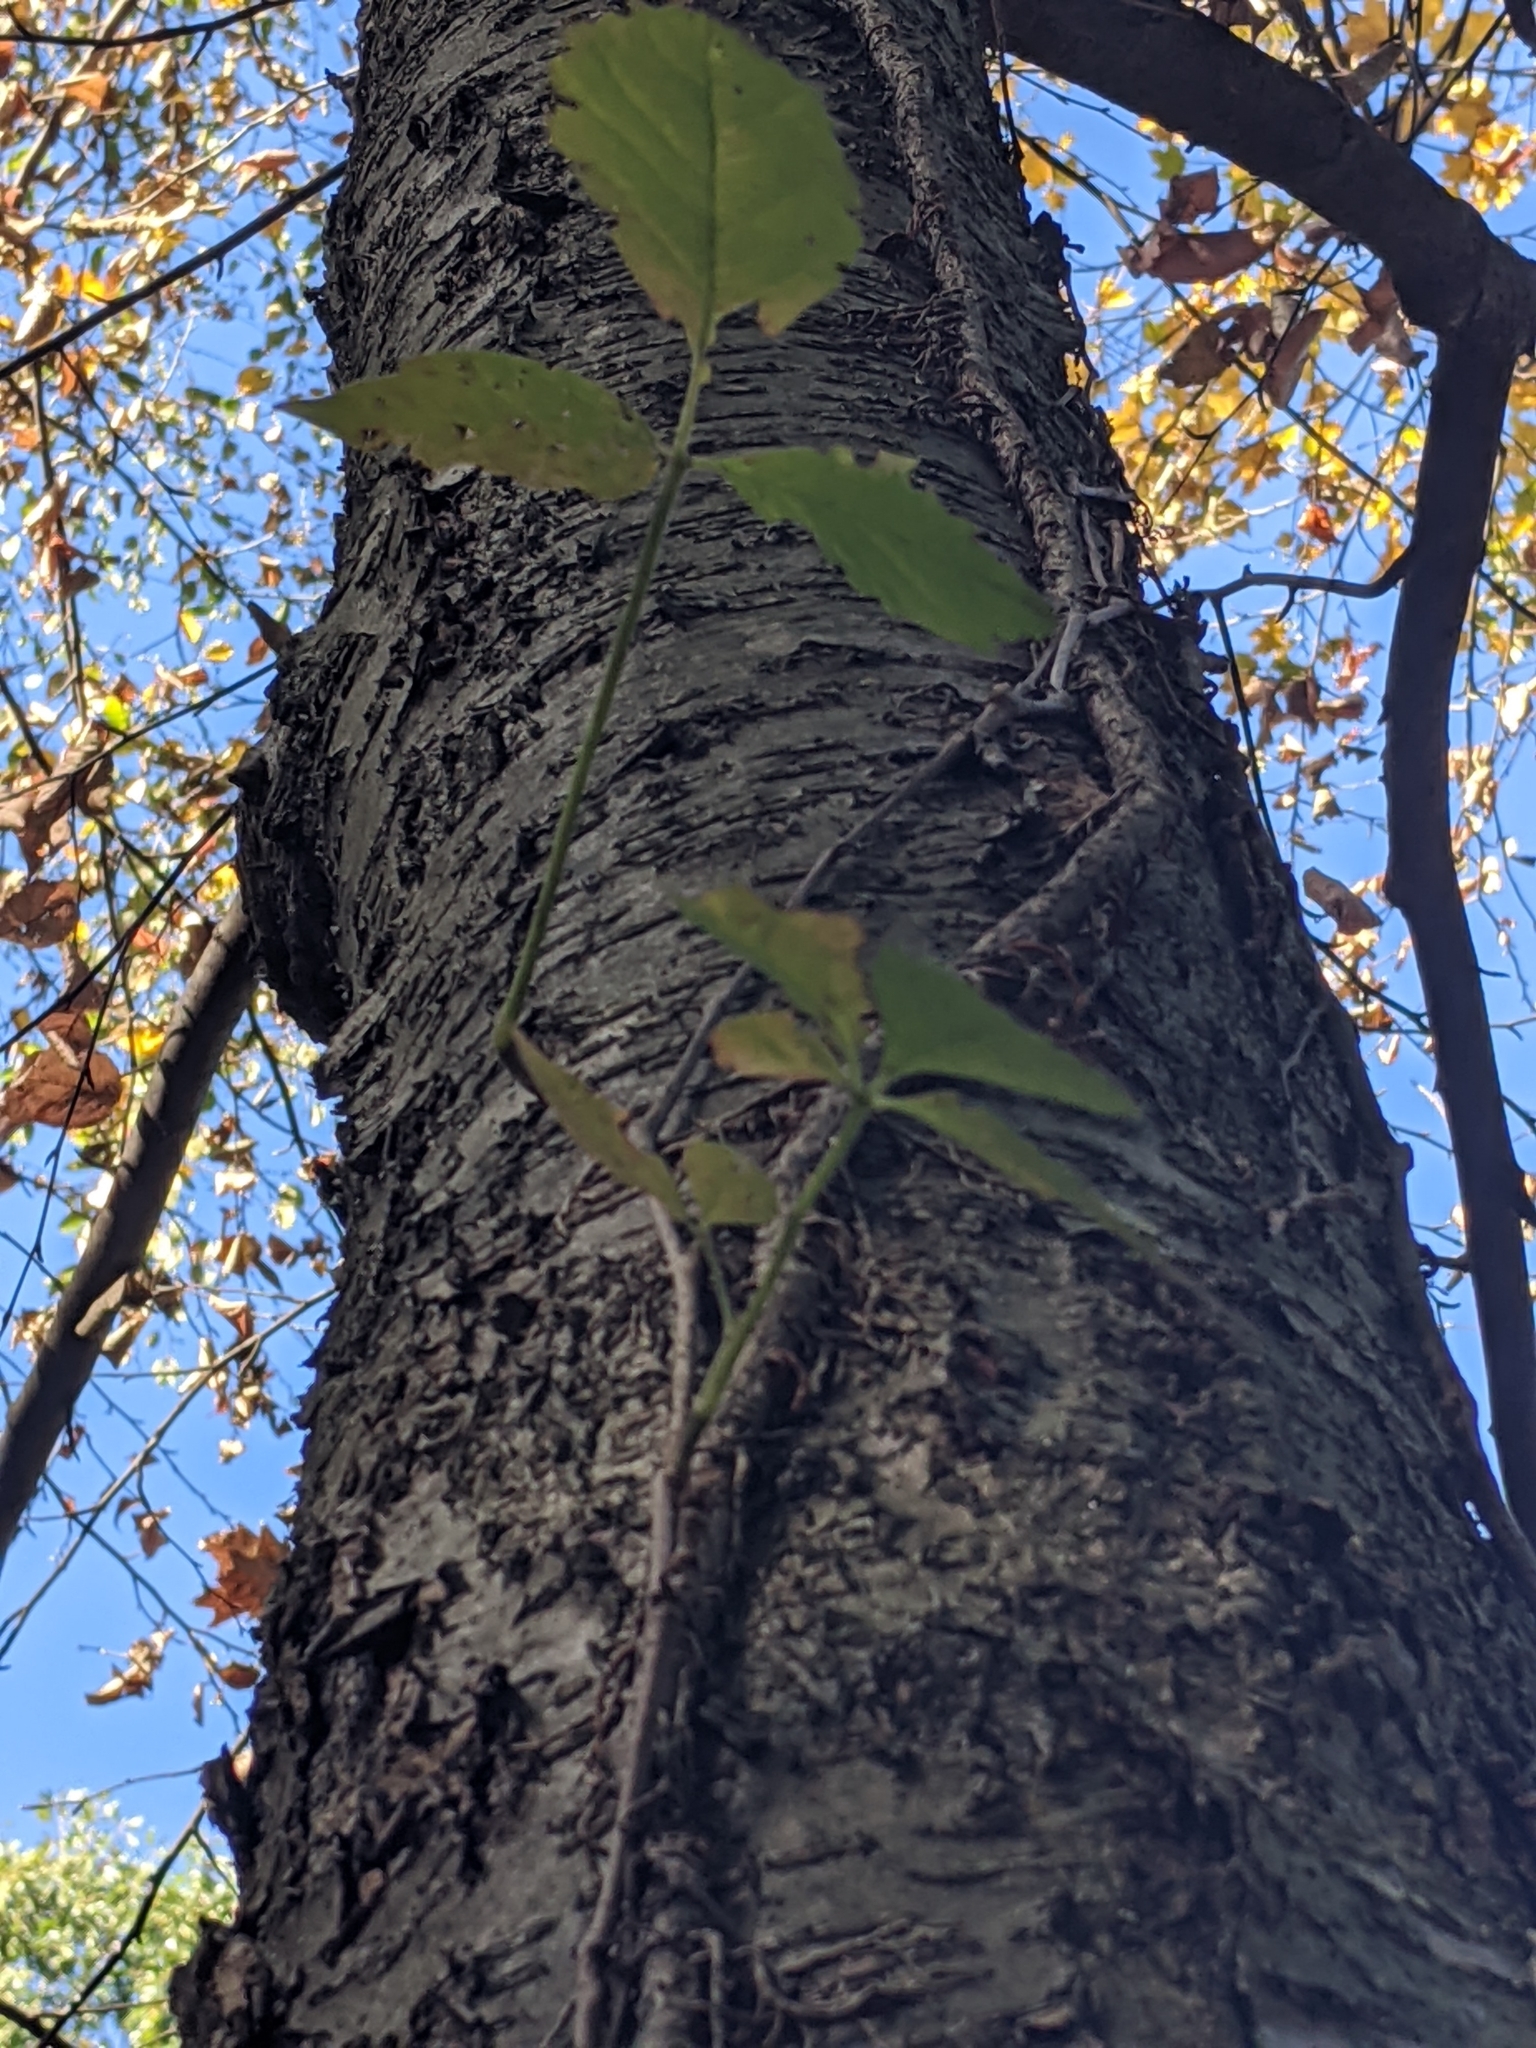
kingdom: Plantae
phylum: Tracheophyta
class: Magnoliopsida
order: Sapindales
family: Anacardiaceae
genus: Toxicodendron
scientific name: Toxicodendron radicans
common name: Poison ivy
